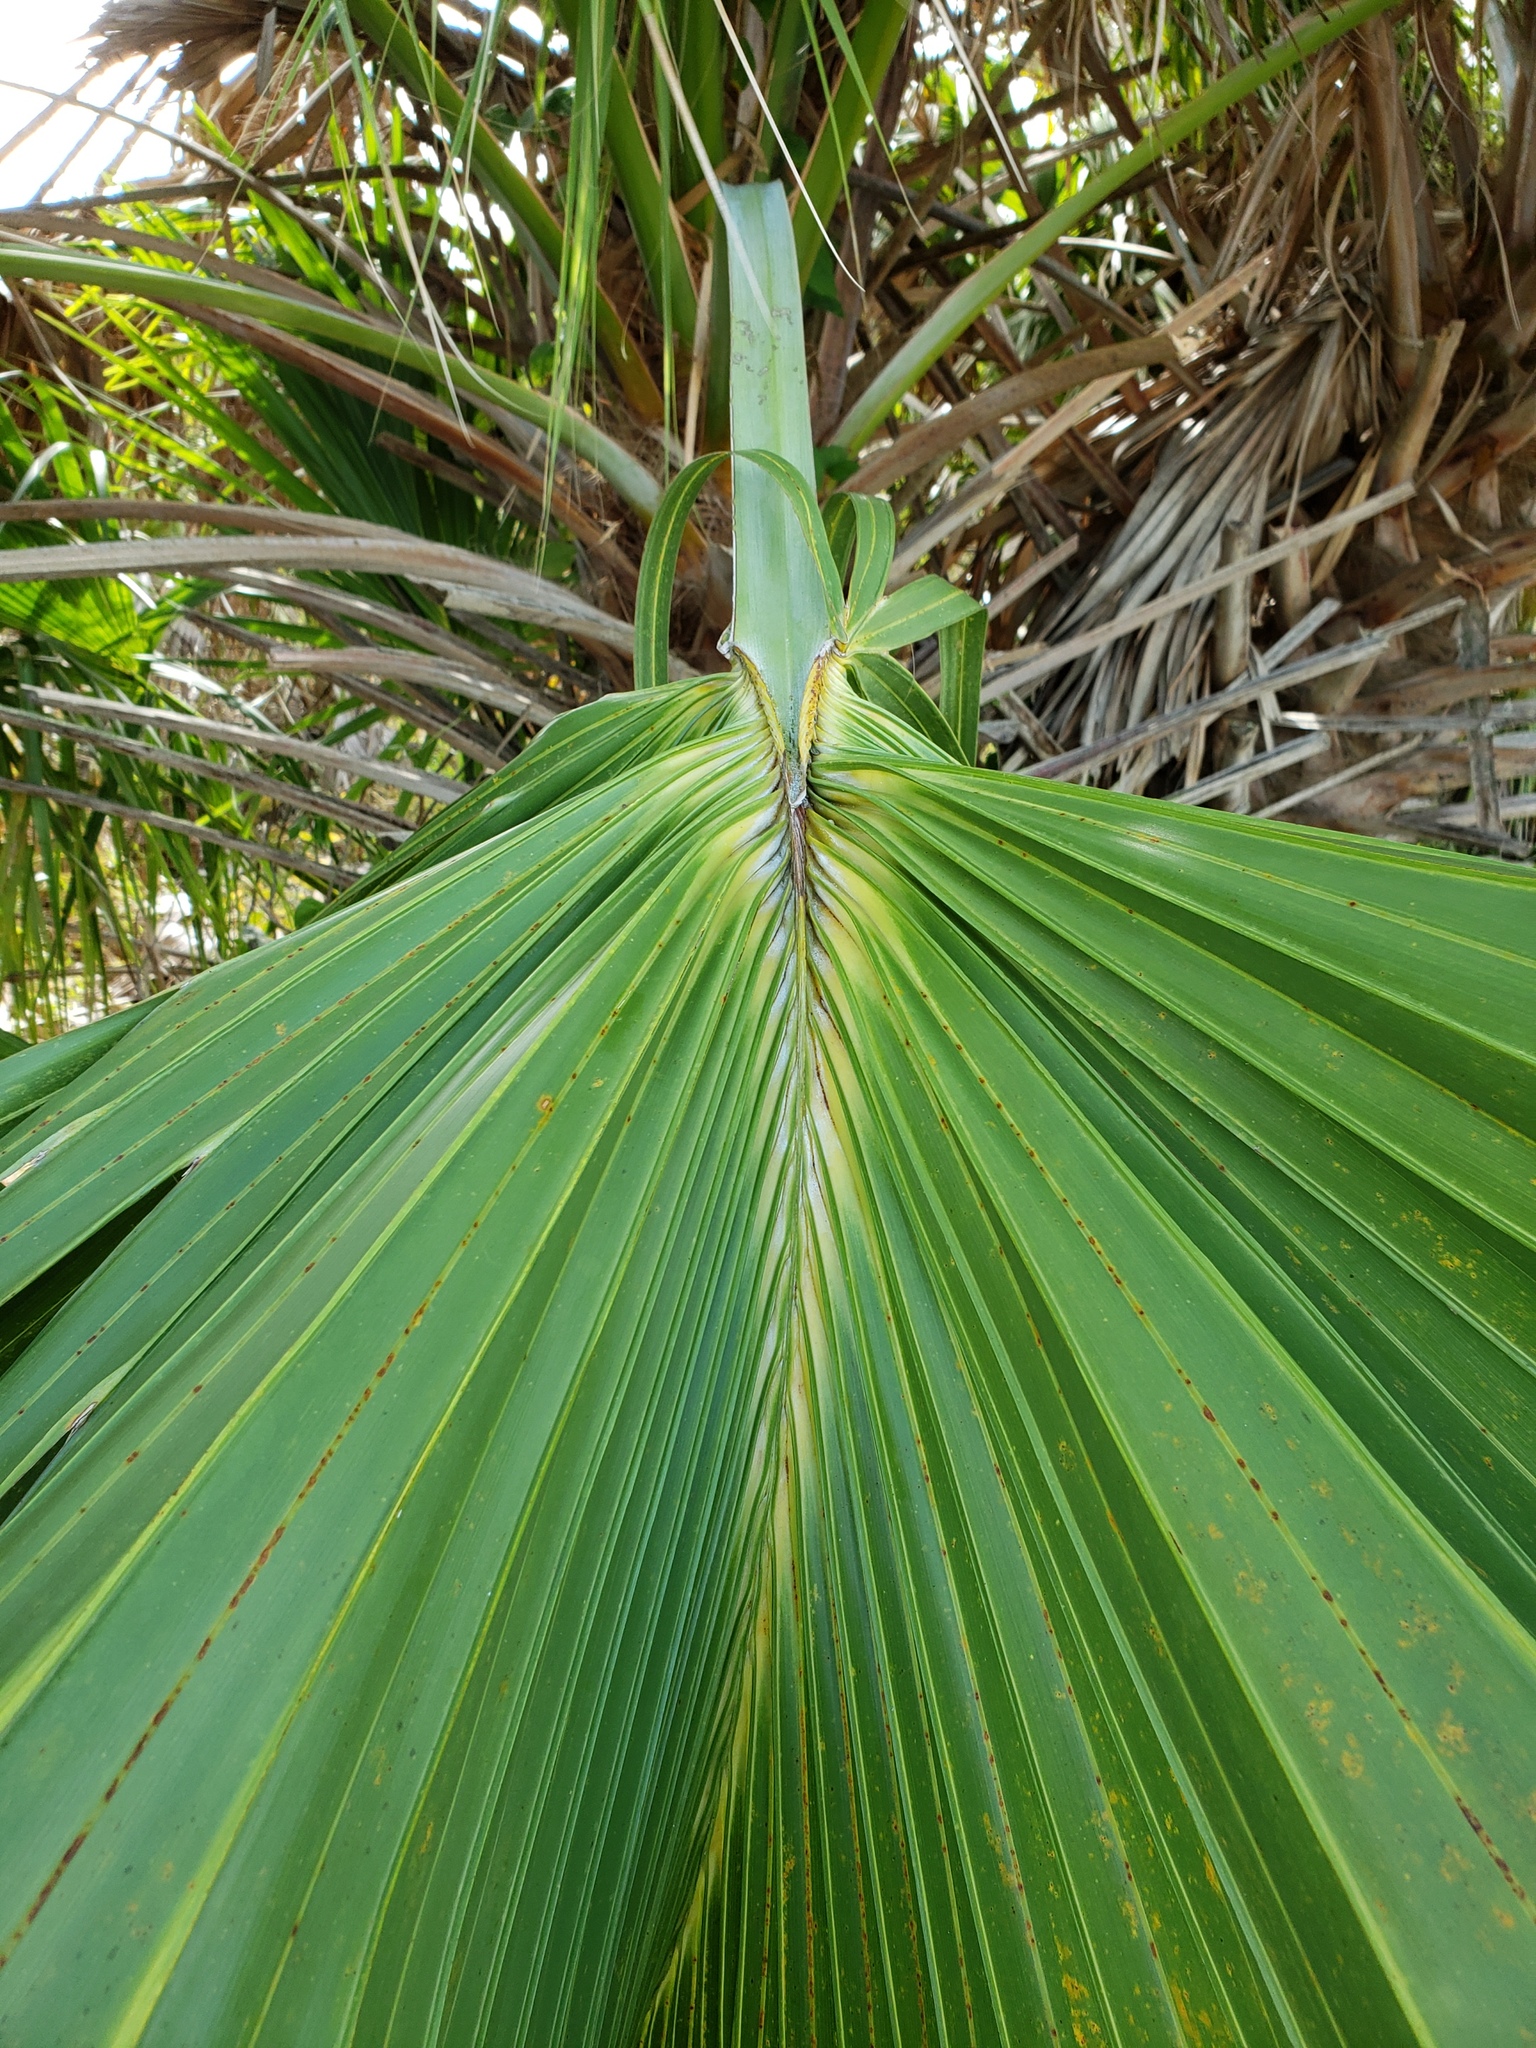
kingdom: Plantae
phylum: Tracheophyta
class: Liliopsida
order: Arecales
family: Arecaceae
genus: Sabal
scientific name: Sabal palmetto
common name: Blue palmetto
